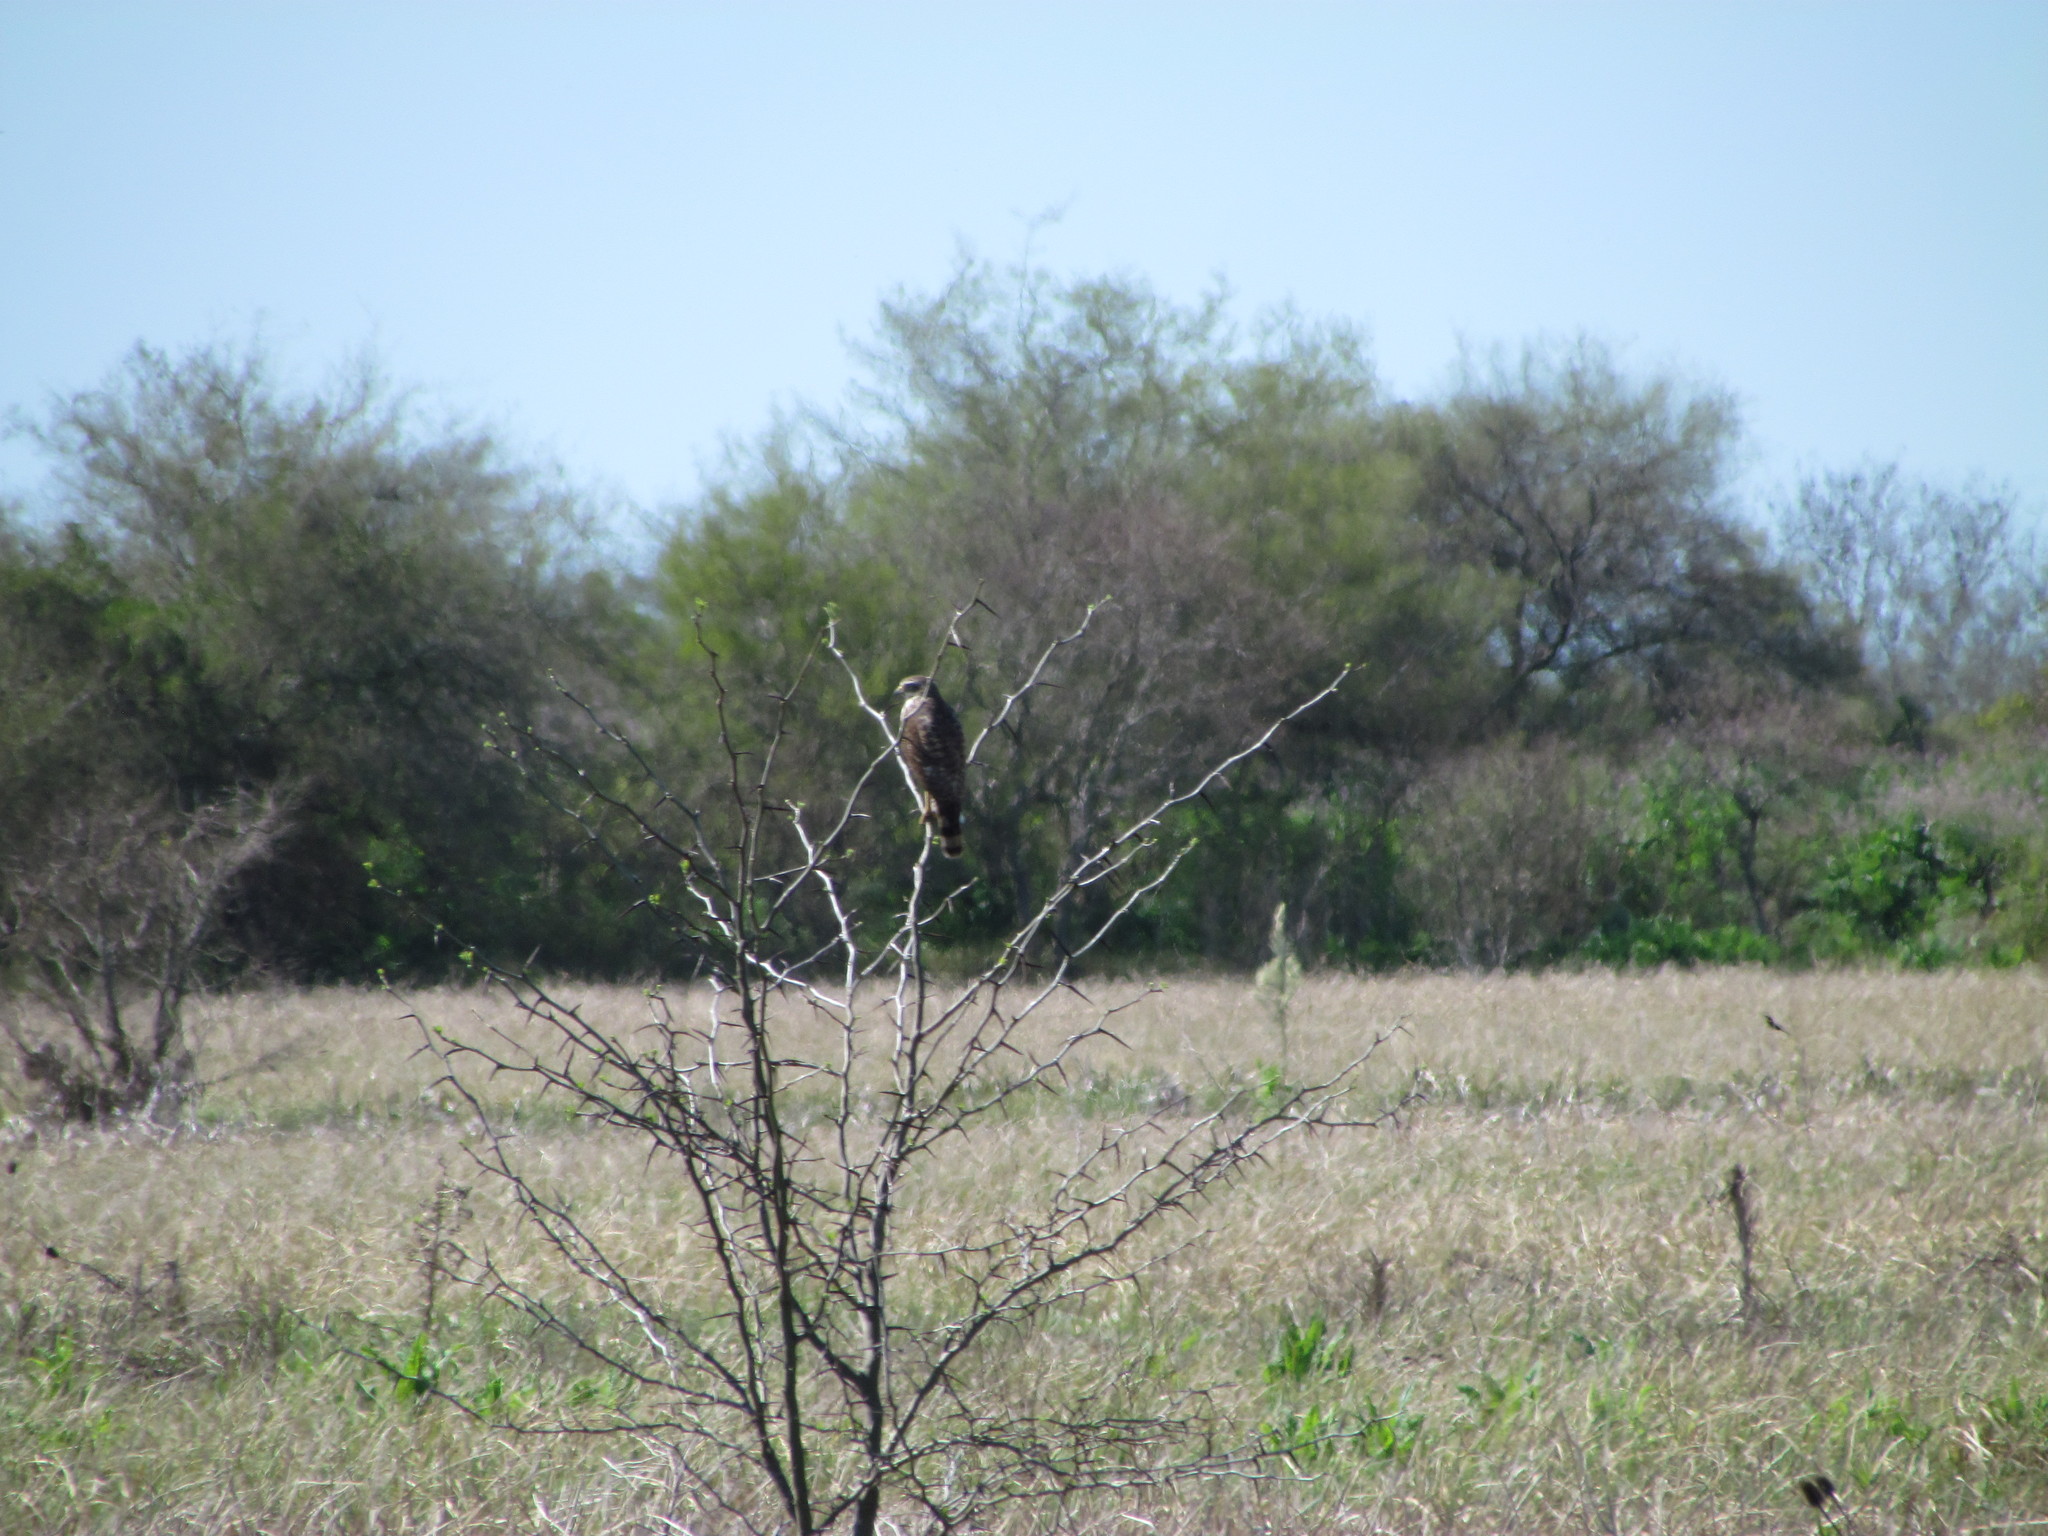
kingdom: Animalia
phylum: Chordata
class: Aves
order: Accipitriformes
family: Accipitridae
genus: Rupornis
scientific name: Rupornis magnirostris
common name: Roadside hawk
